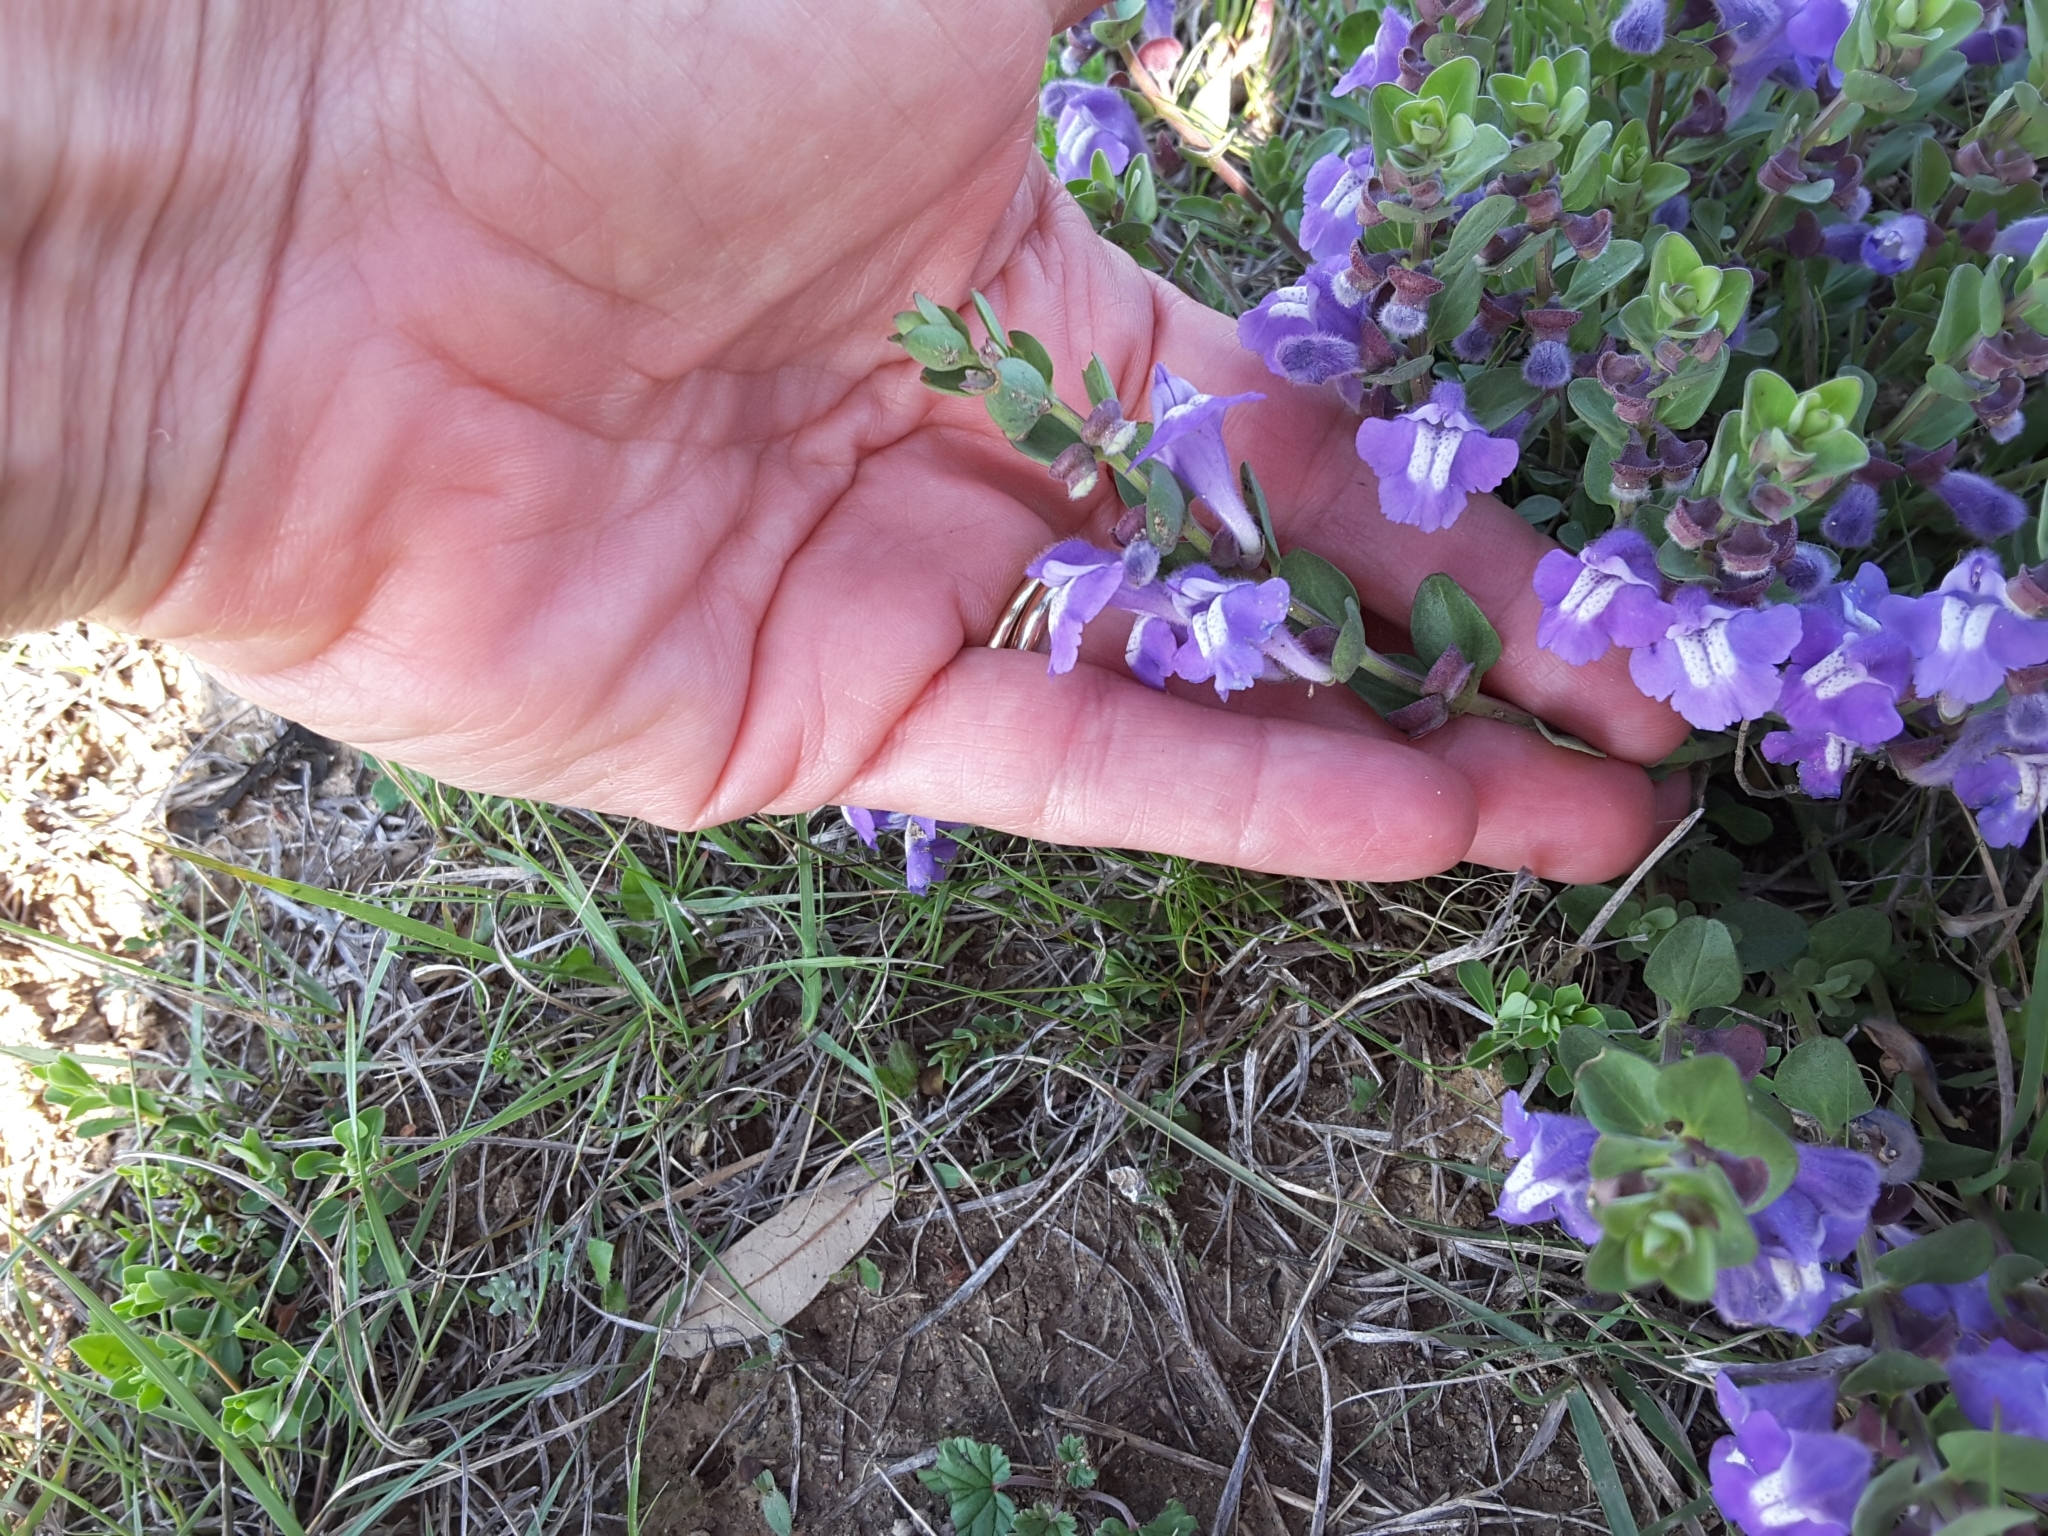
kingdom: Plantae
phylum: Tracheophyta
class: Magnoliopsida
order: Lamiales
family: Lamiaceae
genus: Scutellaria
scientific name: Scutellaria wrightii
